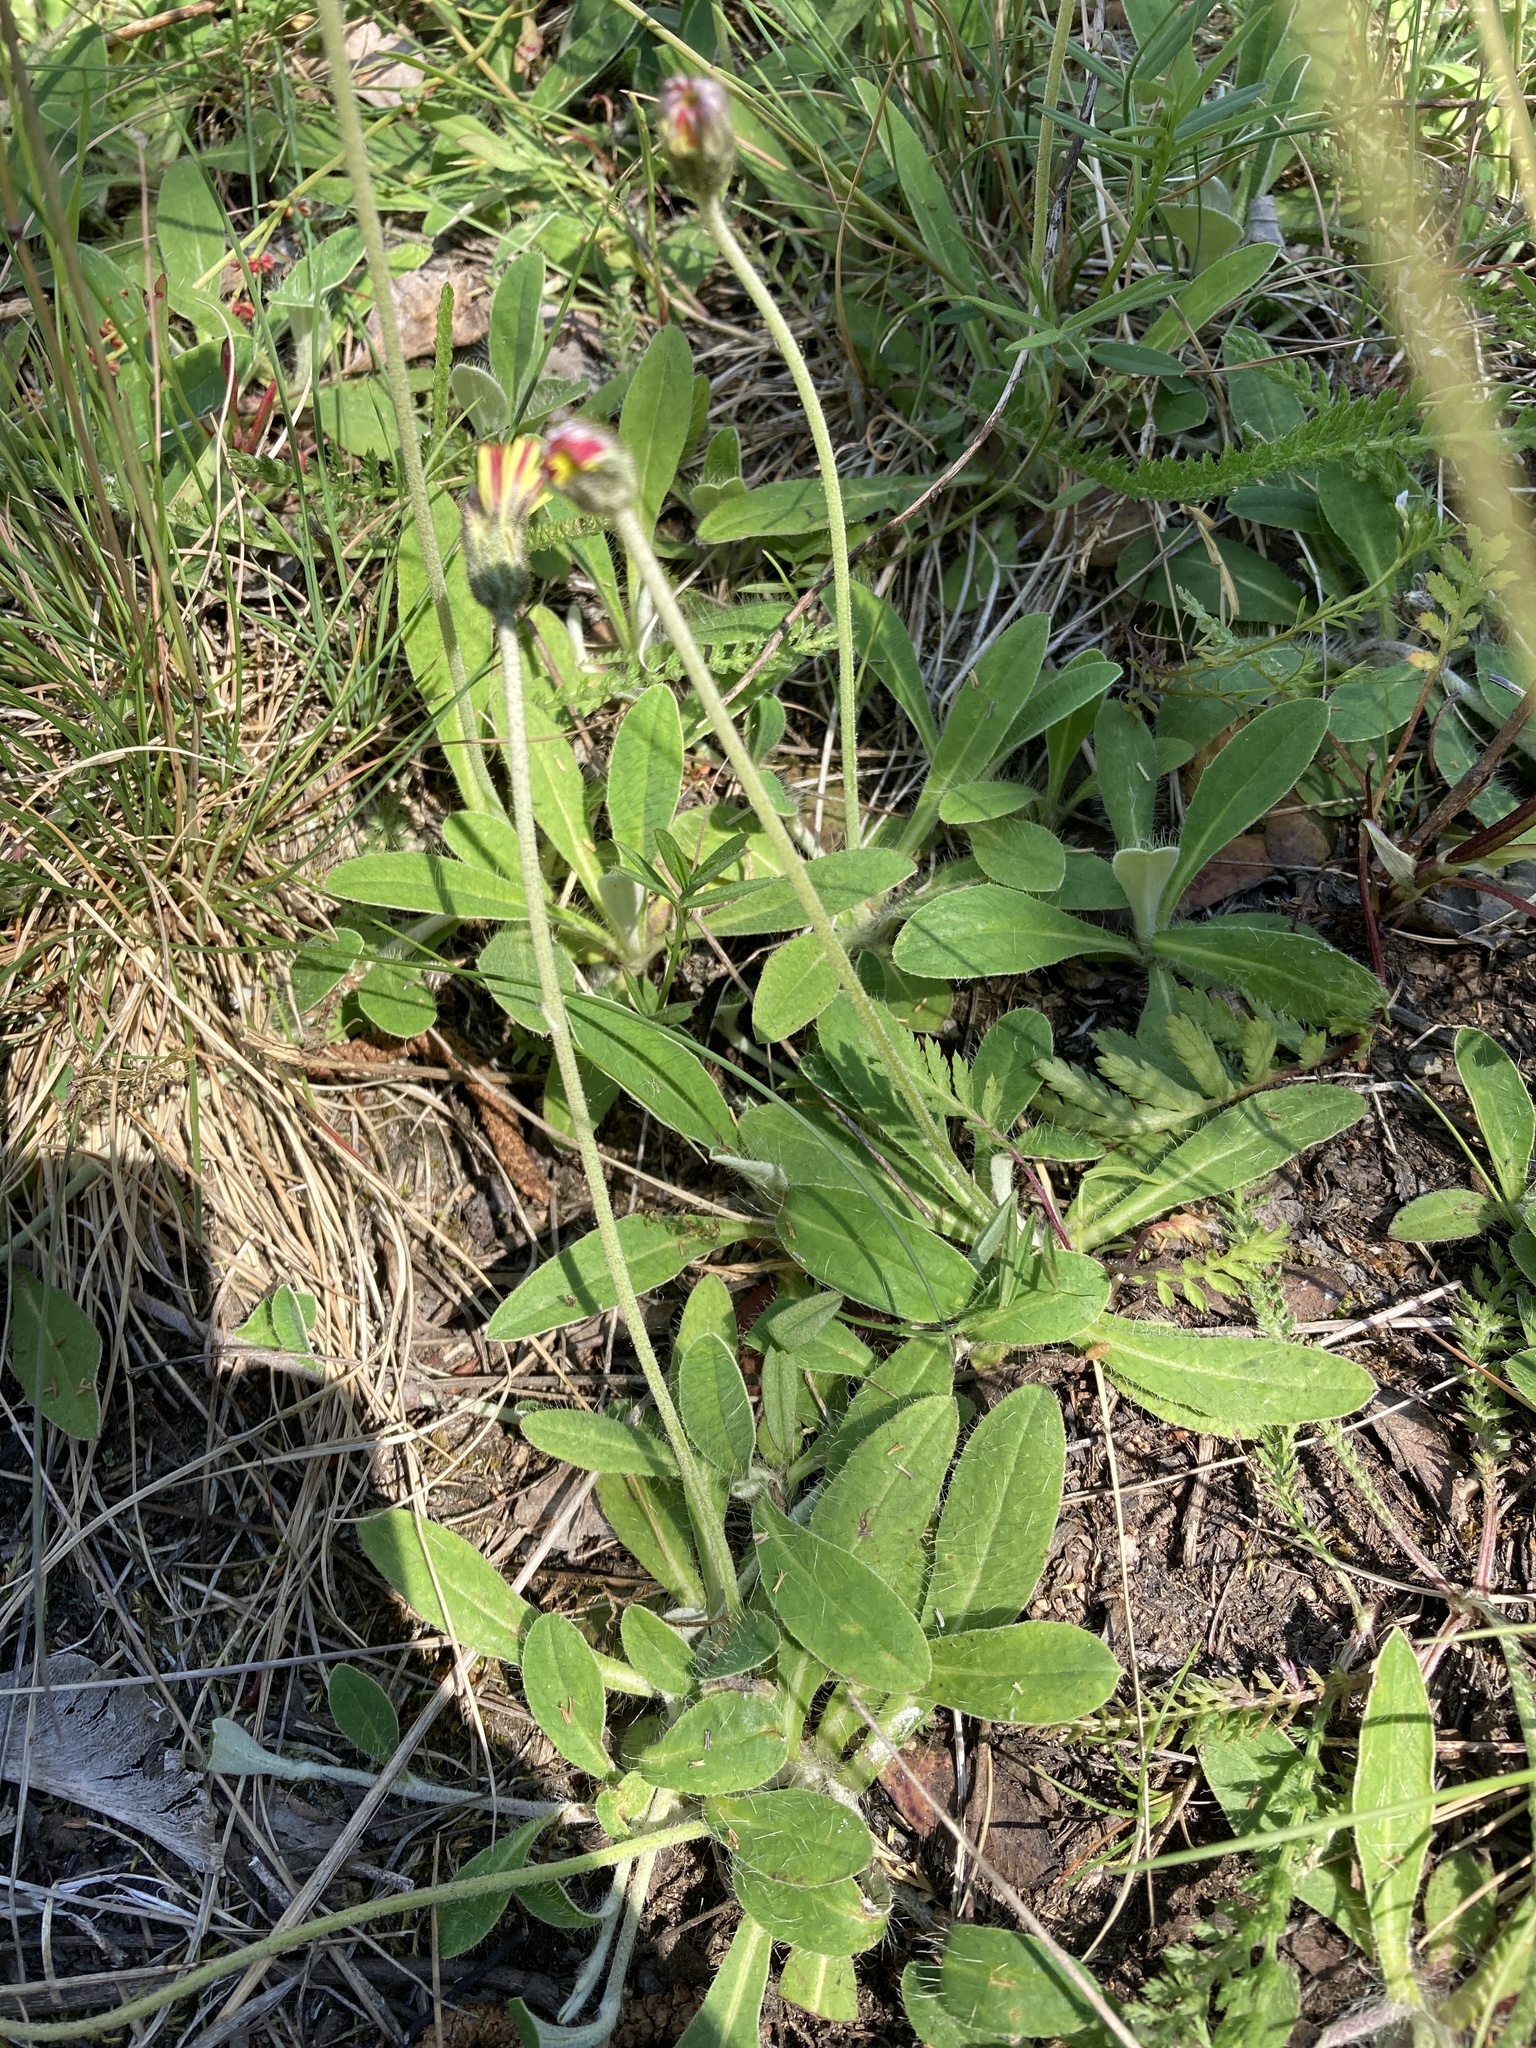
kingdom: Plantae
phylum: Tracheophyta
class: Magnoliopsida
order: Asterales
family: Asteraceae
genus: Pilosella
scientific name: Pilosella officinarum
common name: Mouse-ear hawkweed
